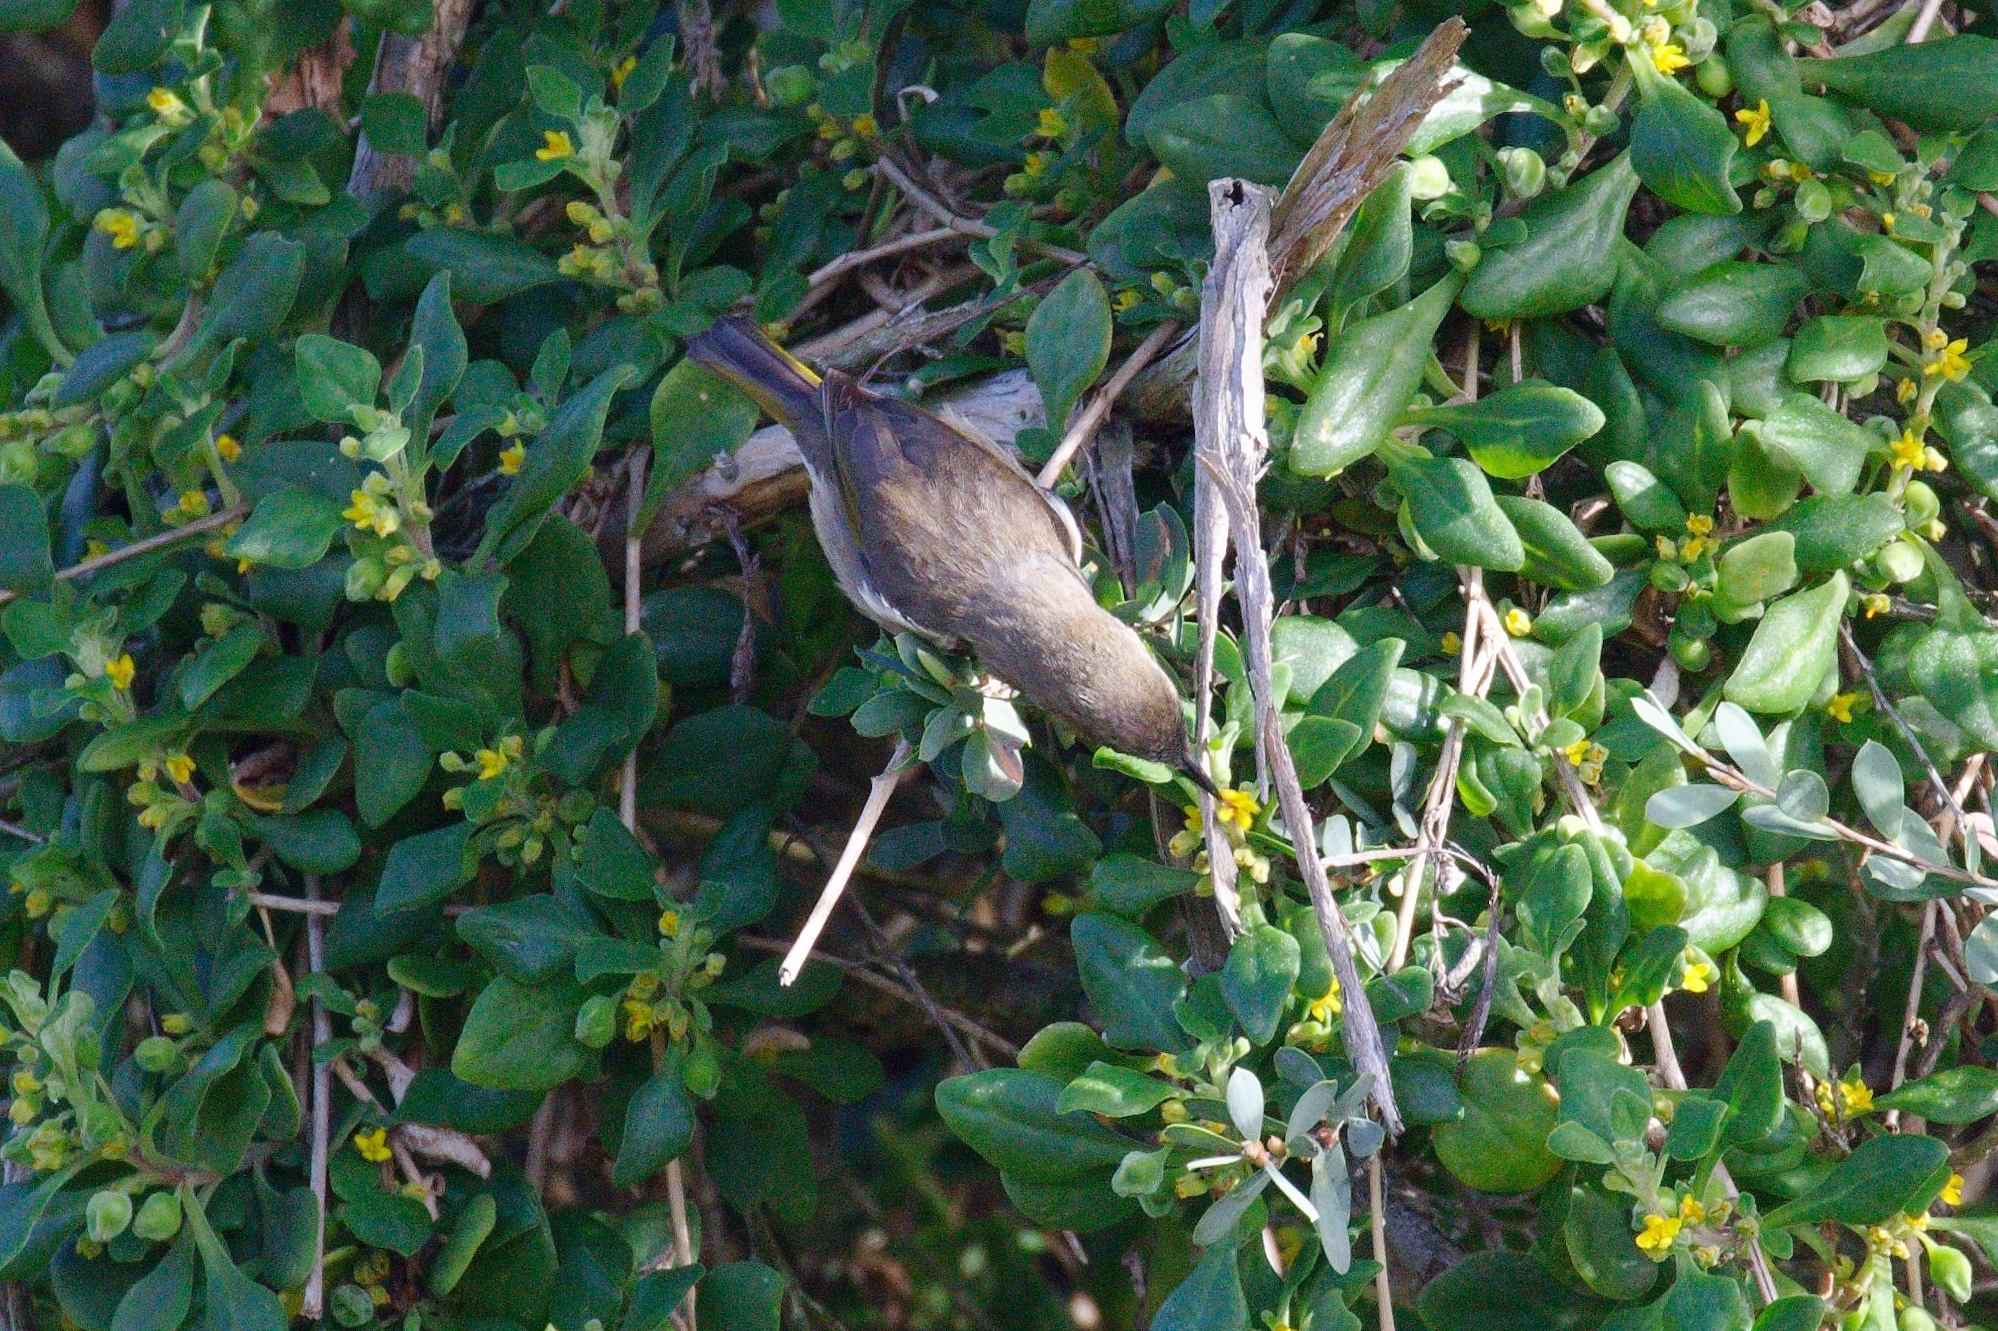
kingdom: Animalia
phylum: Chordata
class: Aves
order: Passeriformes
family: Meliphagidae
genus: Phylidonyris
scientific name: Phylidonyris pyrrhopterus
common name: Crescent honeyeater
